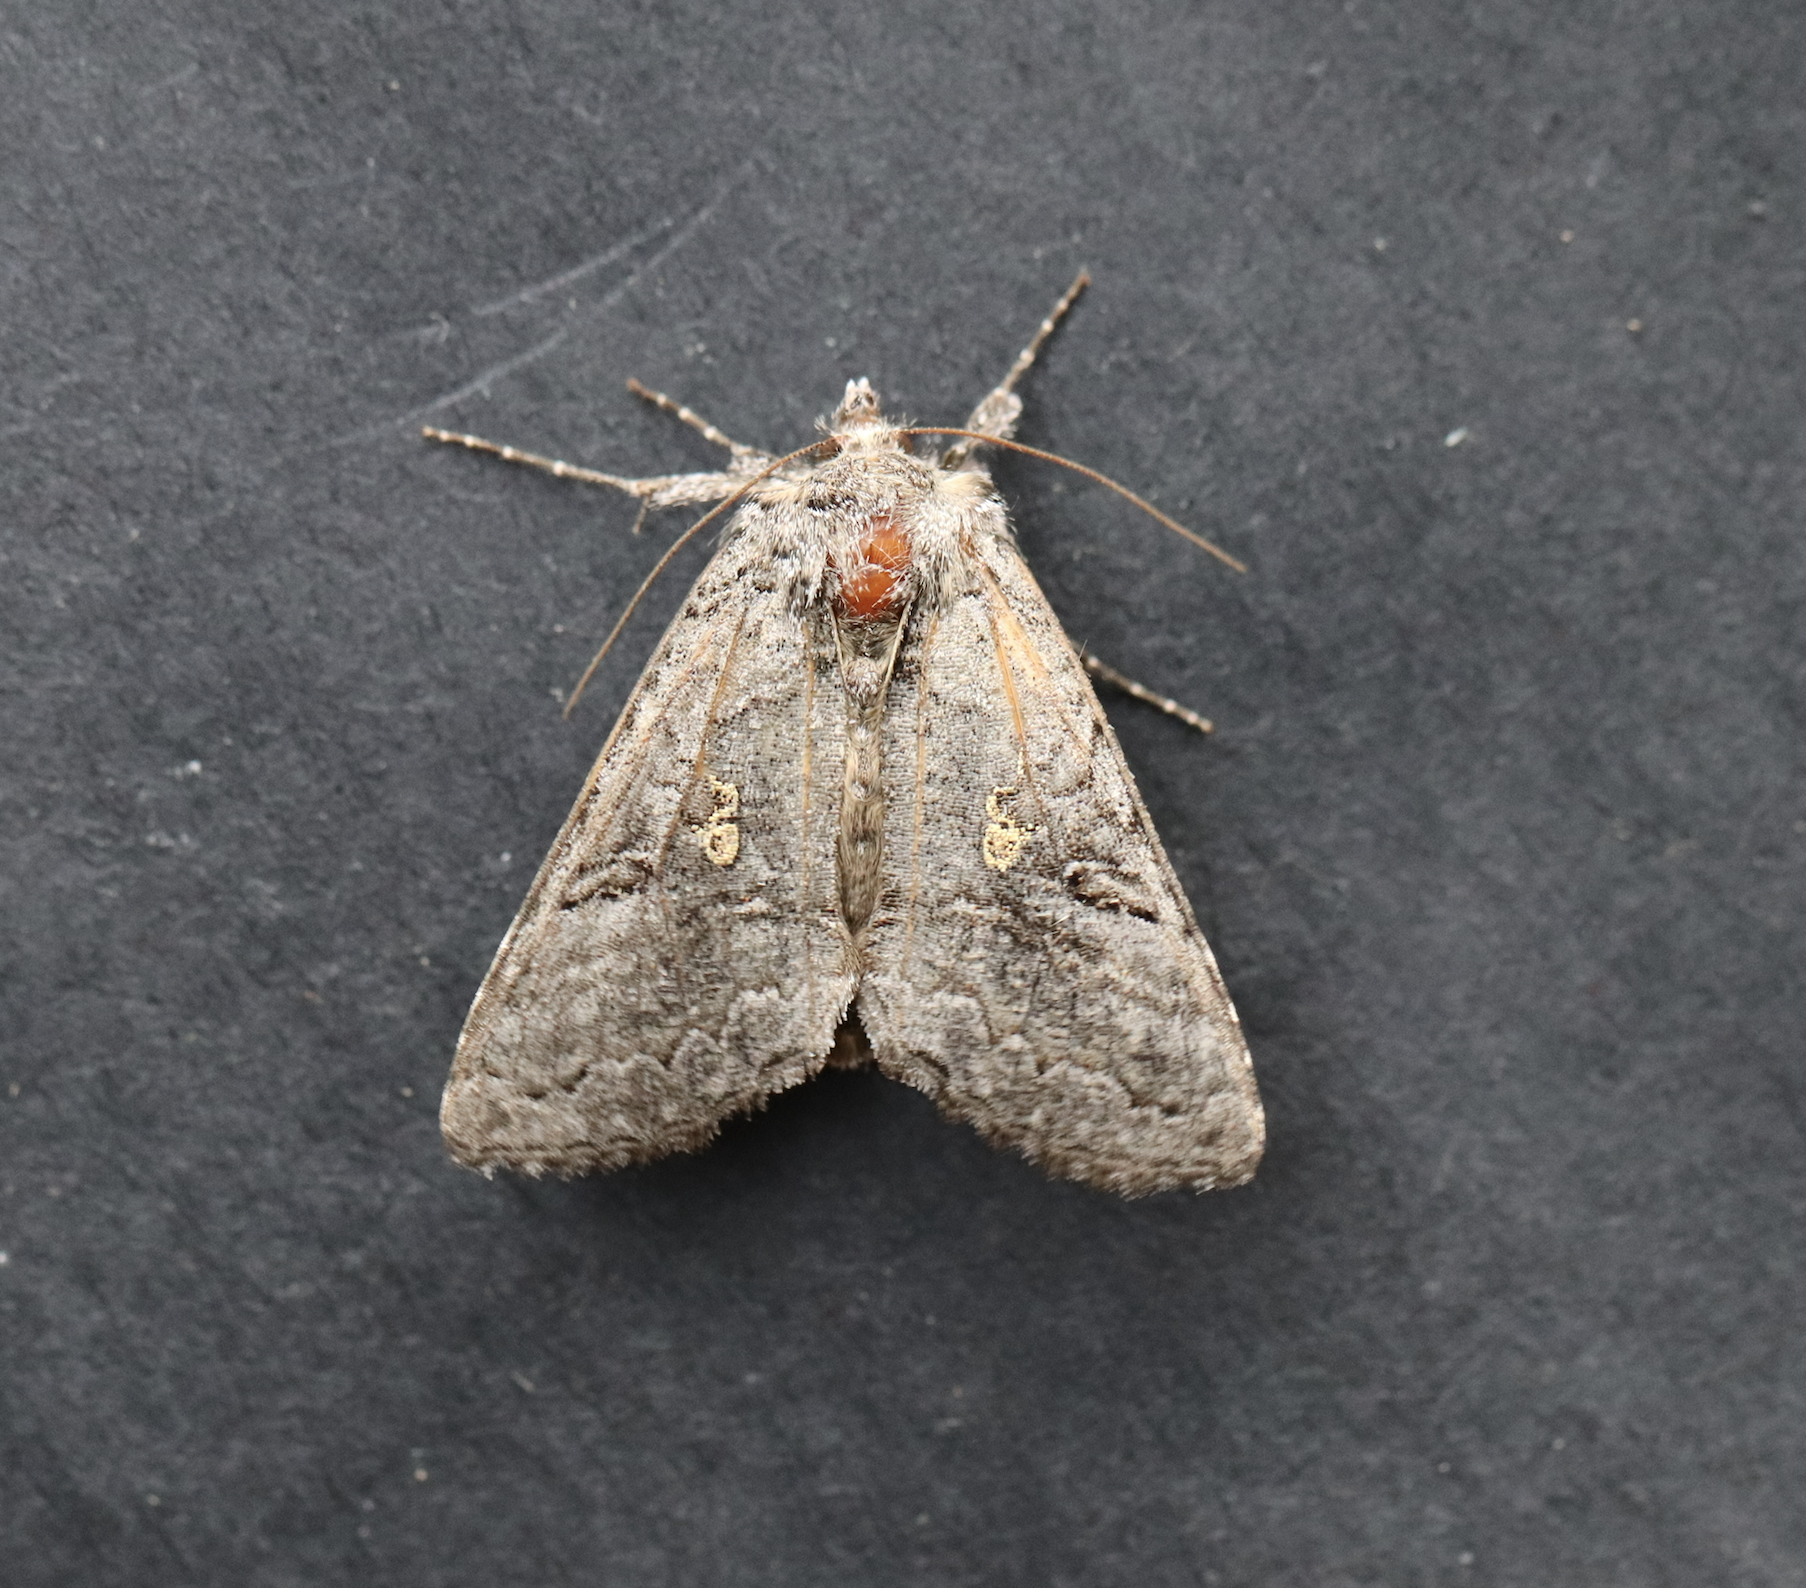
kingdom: Animalia
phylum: Arthropoda
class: Insecta
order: Lepidoptera
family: Noctuidae
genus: Syngrapha
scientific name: Syngrapha viridisigma
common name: Spruce false looper moth
